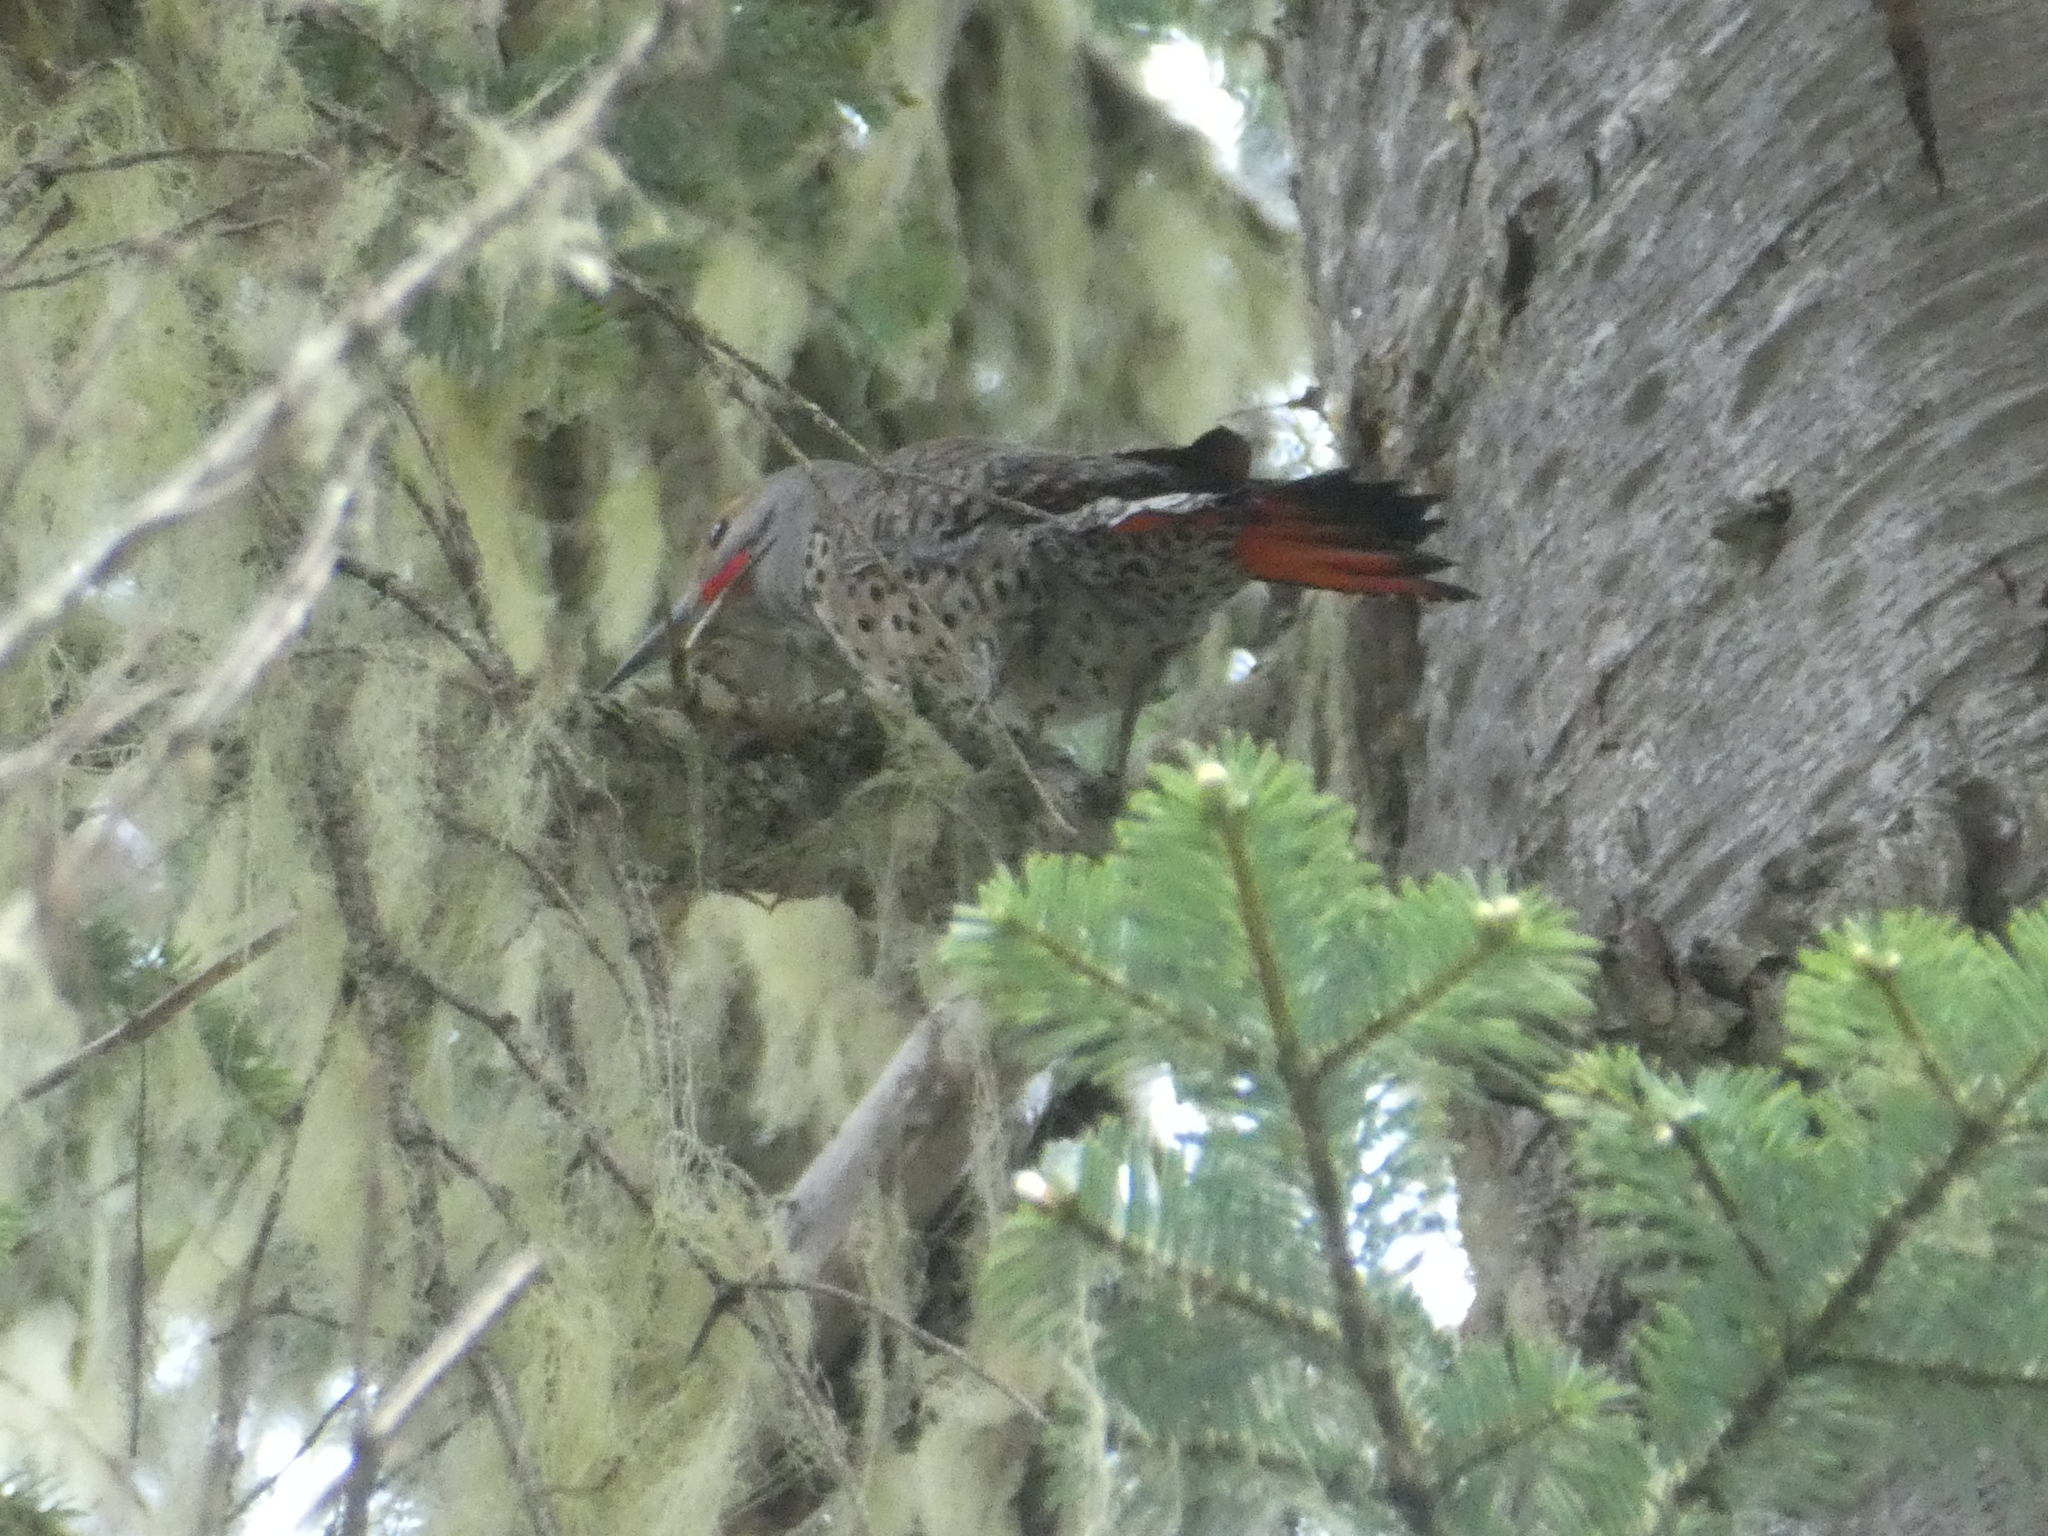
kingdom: Animalia
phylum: Chordata
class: Aves
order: Piciformes
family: Picidae
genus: Colaptes
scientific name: Colaptes auratus
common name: Northern flicker
